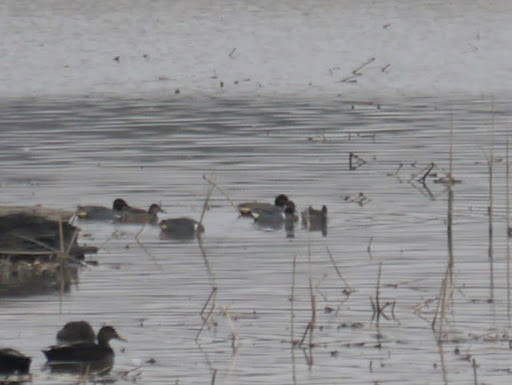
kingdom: Animalia
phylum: Chordata
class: Aves
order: Anseriformes
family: Anatidae
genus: Anas
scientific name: Anas crecca
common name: Eurasian teal
